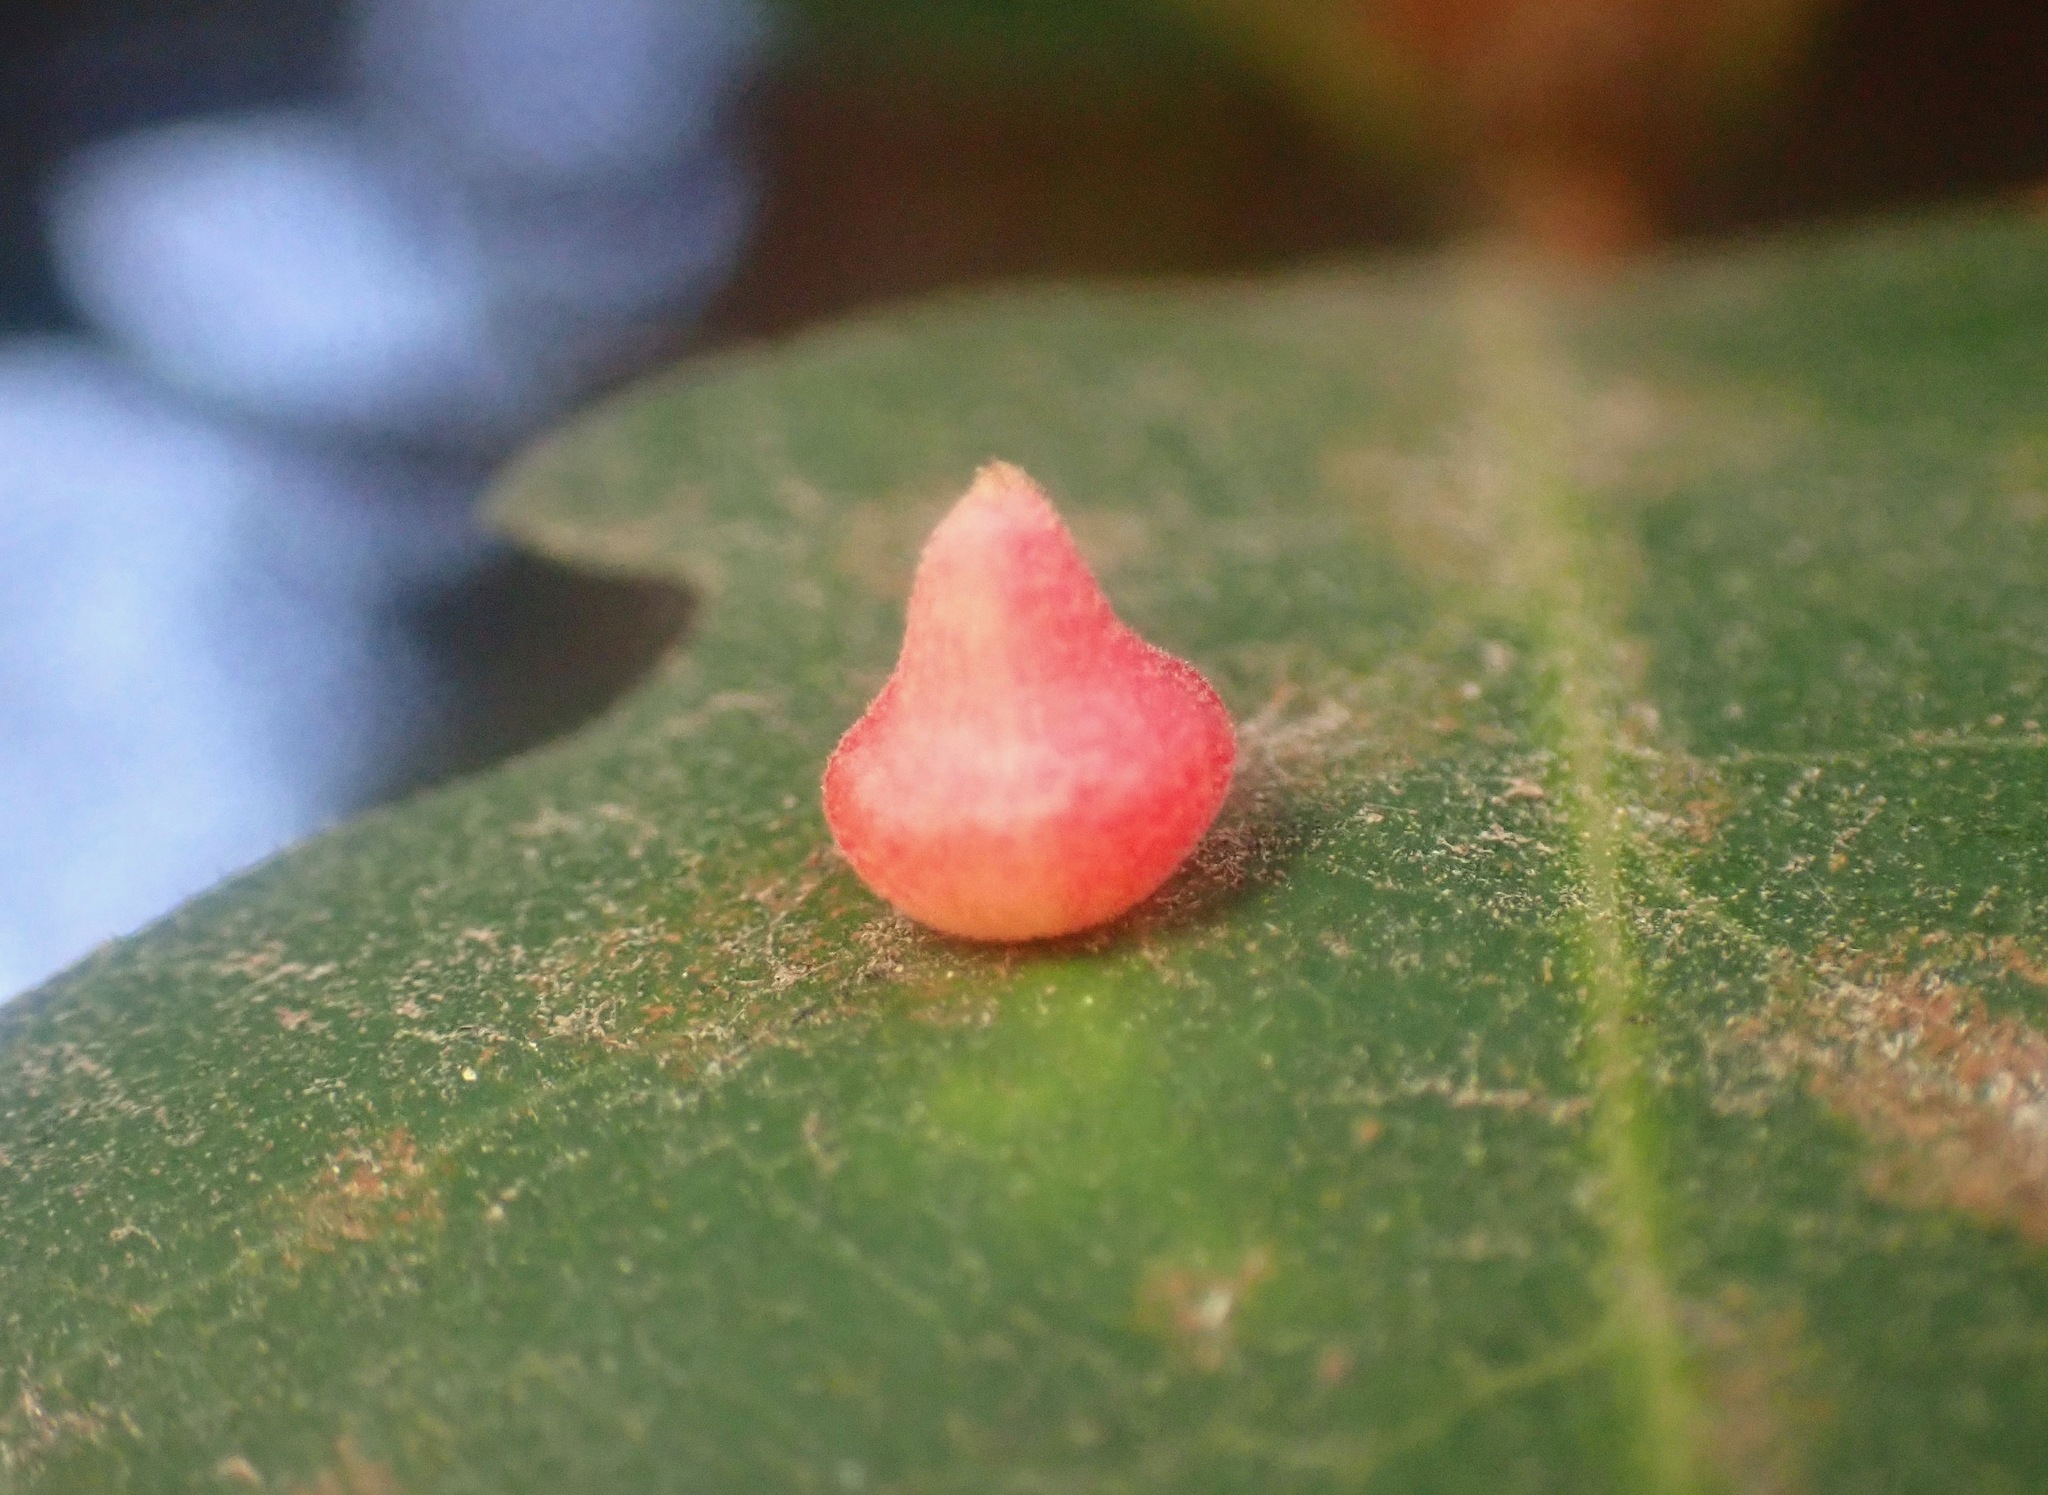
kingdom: Animalia
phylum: Arthropoda
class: Insecta
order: Hymenoptera
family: Cynipidae
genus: Andricus
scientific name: Andricus
